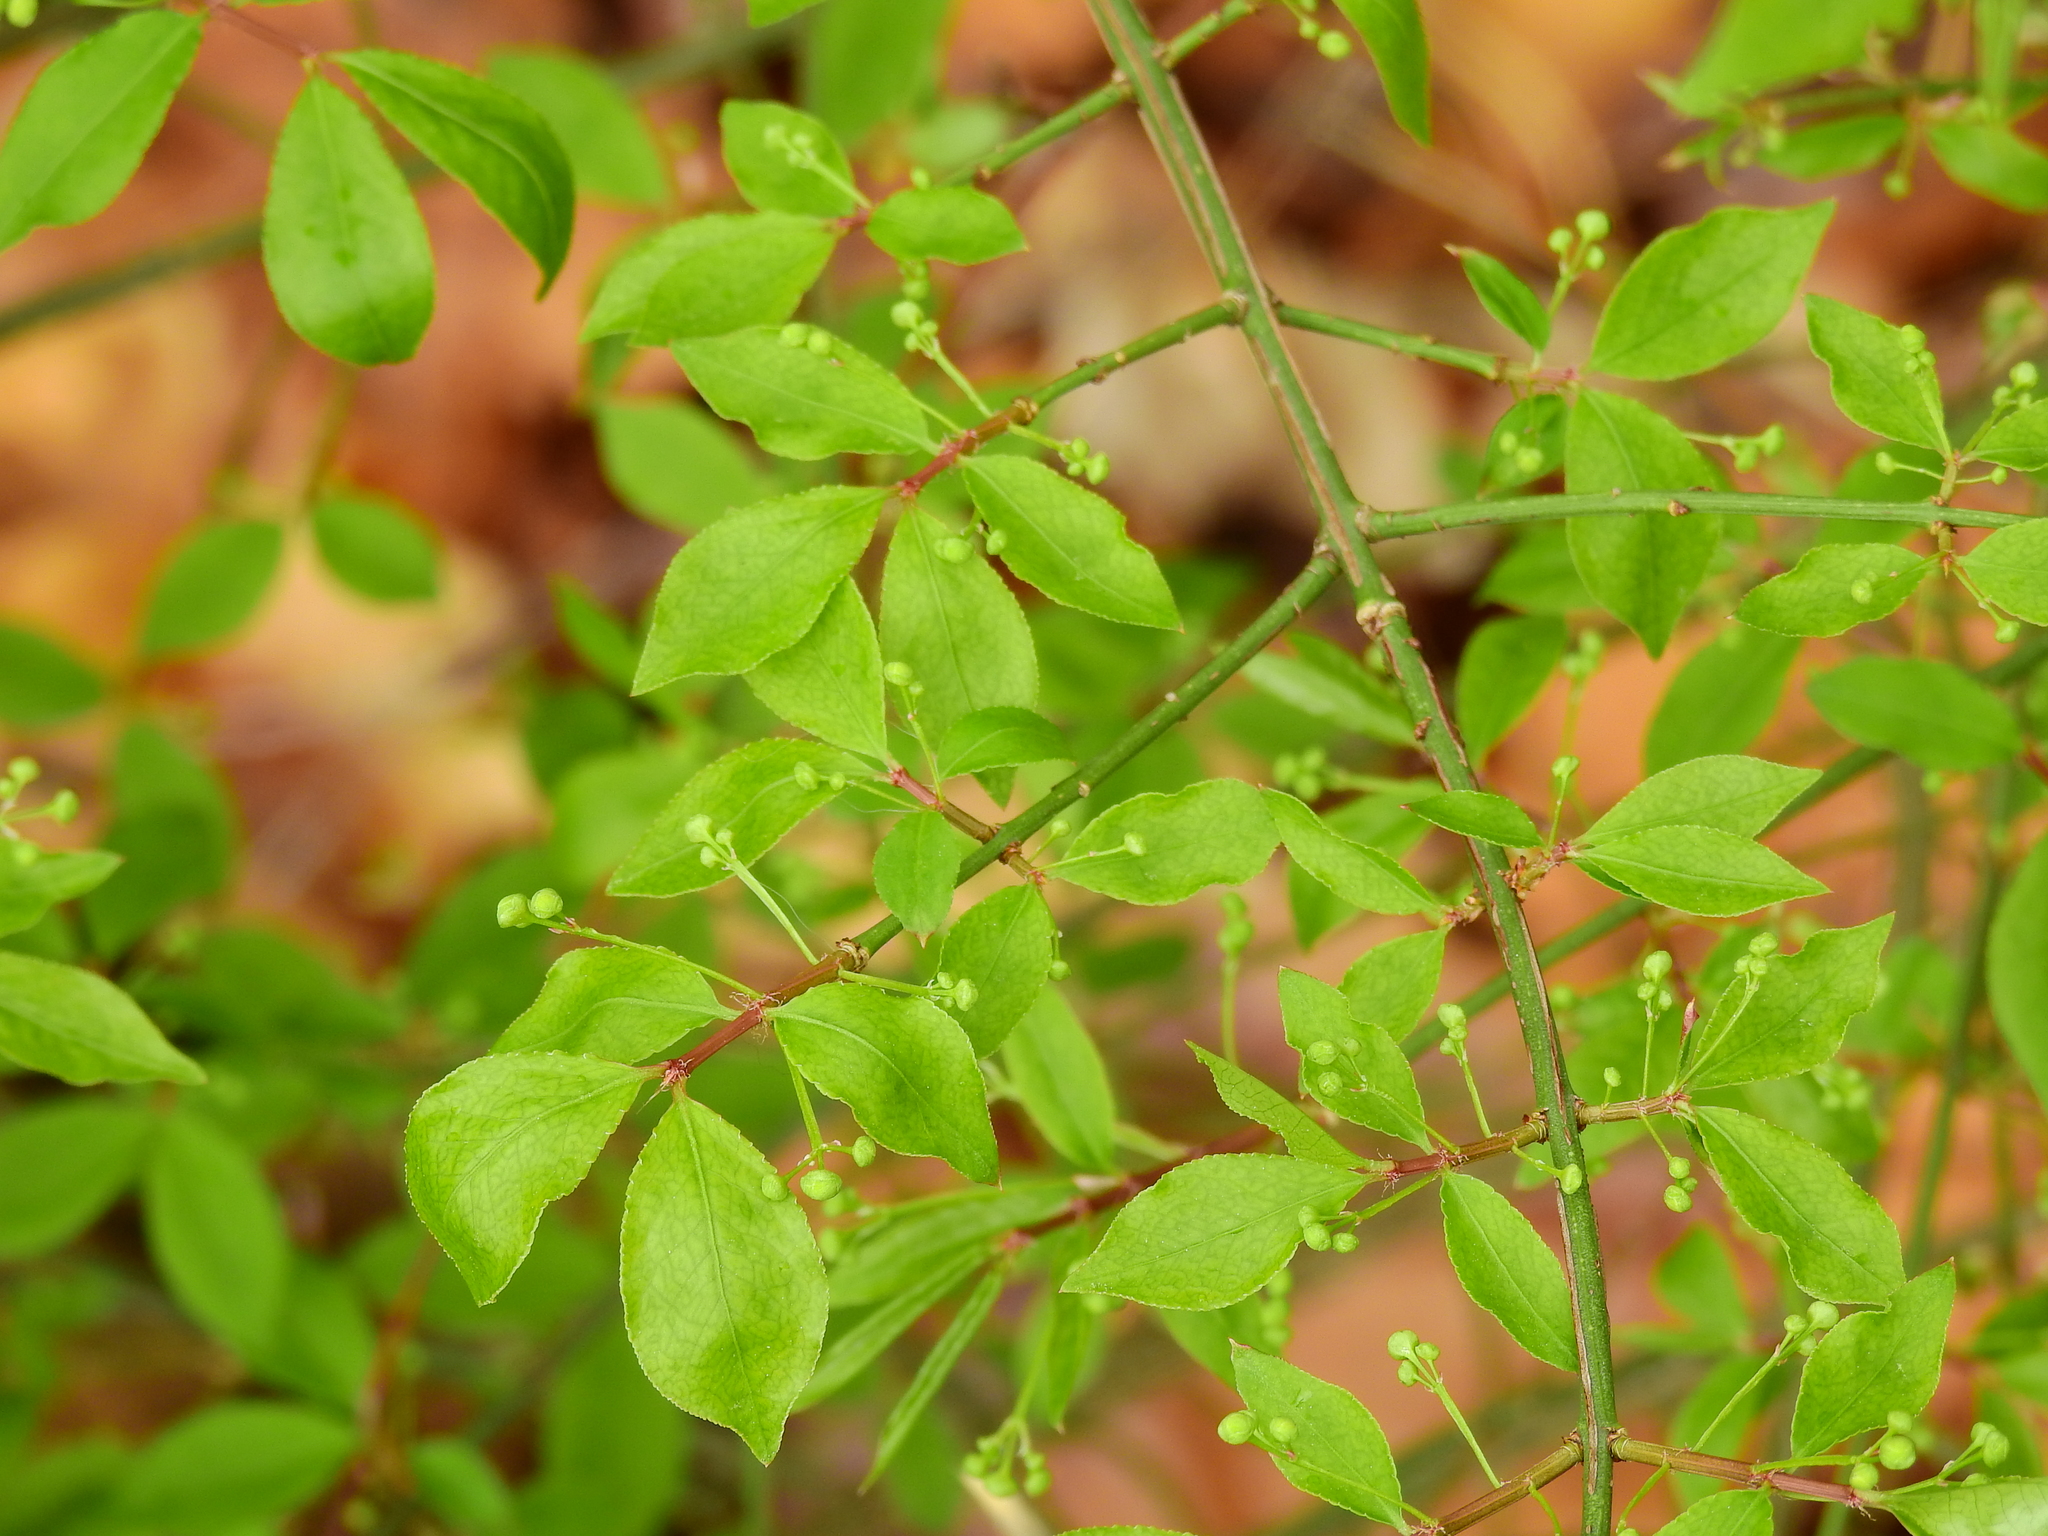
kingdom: Plantae
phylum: Tracheophyta
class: Magnoliopsida
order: Celastrales
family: Celastraceae
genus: Euonymus
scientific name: Euonymus alatus
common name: Winged euonymus
